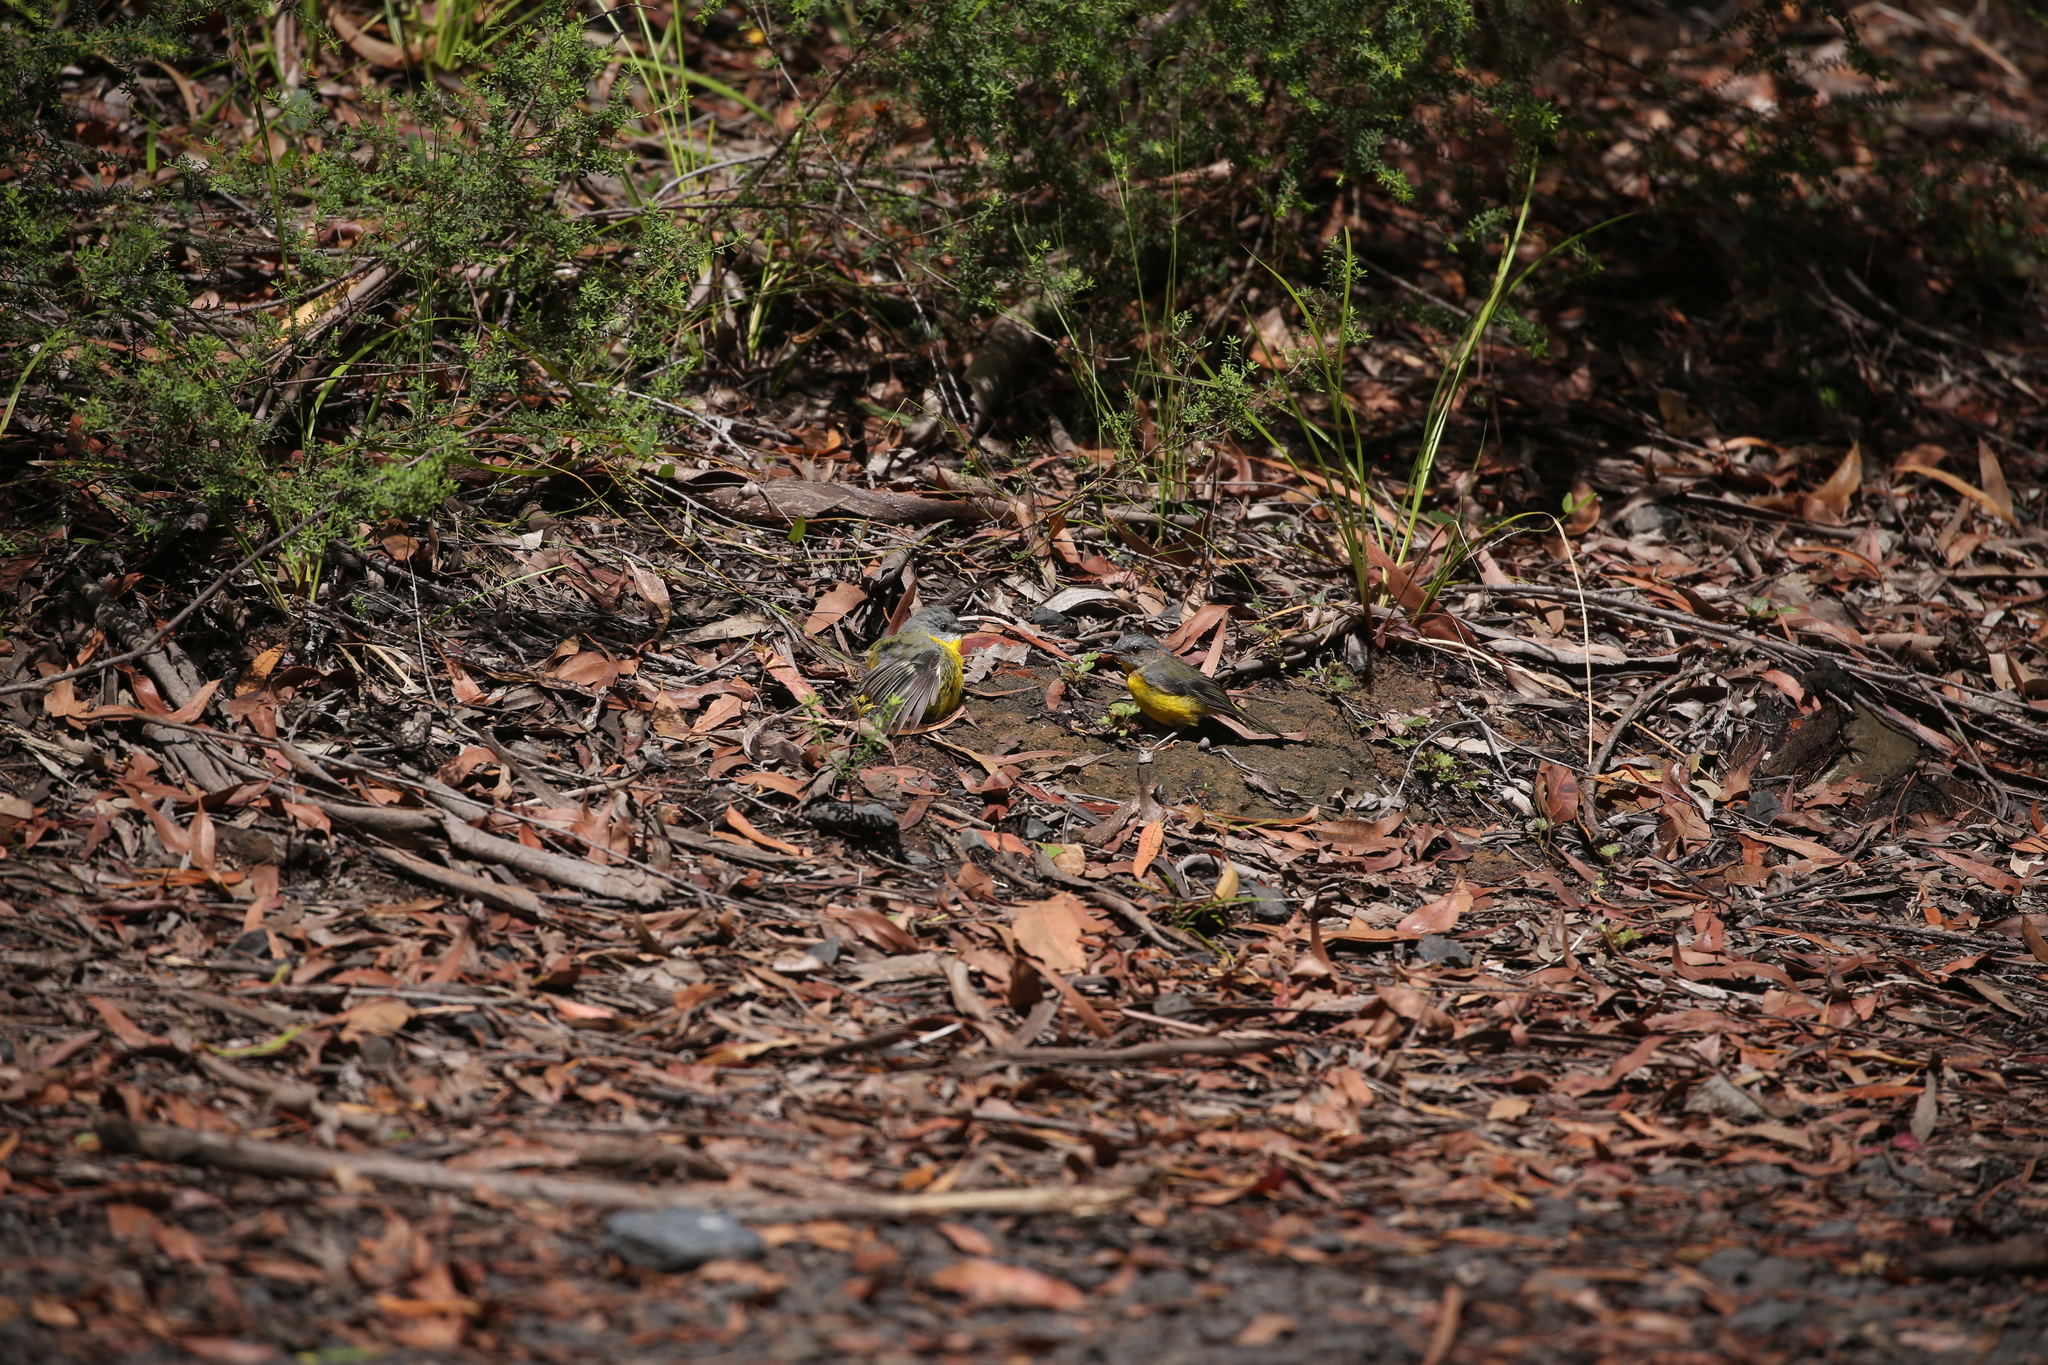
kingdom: Animalia
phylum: Chordata
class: Aves
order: Passeriformes
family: Petroicidae
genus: Eopsaltria
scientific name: Eopsaltria australis
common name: Eastern yellow robin
